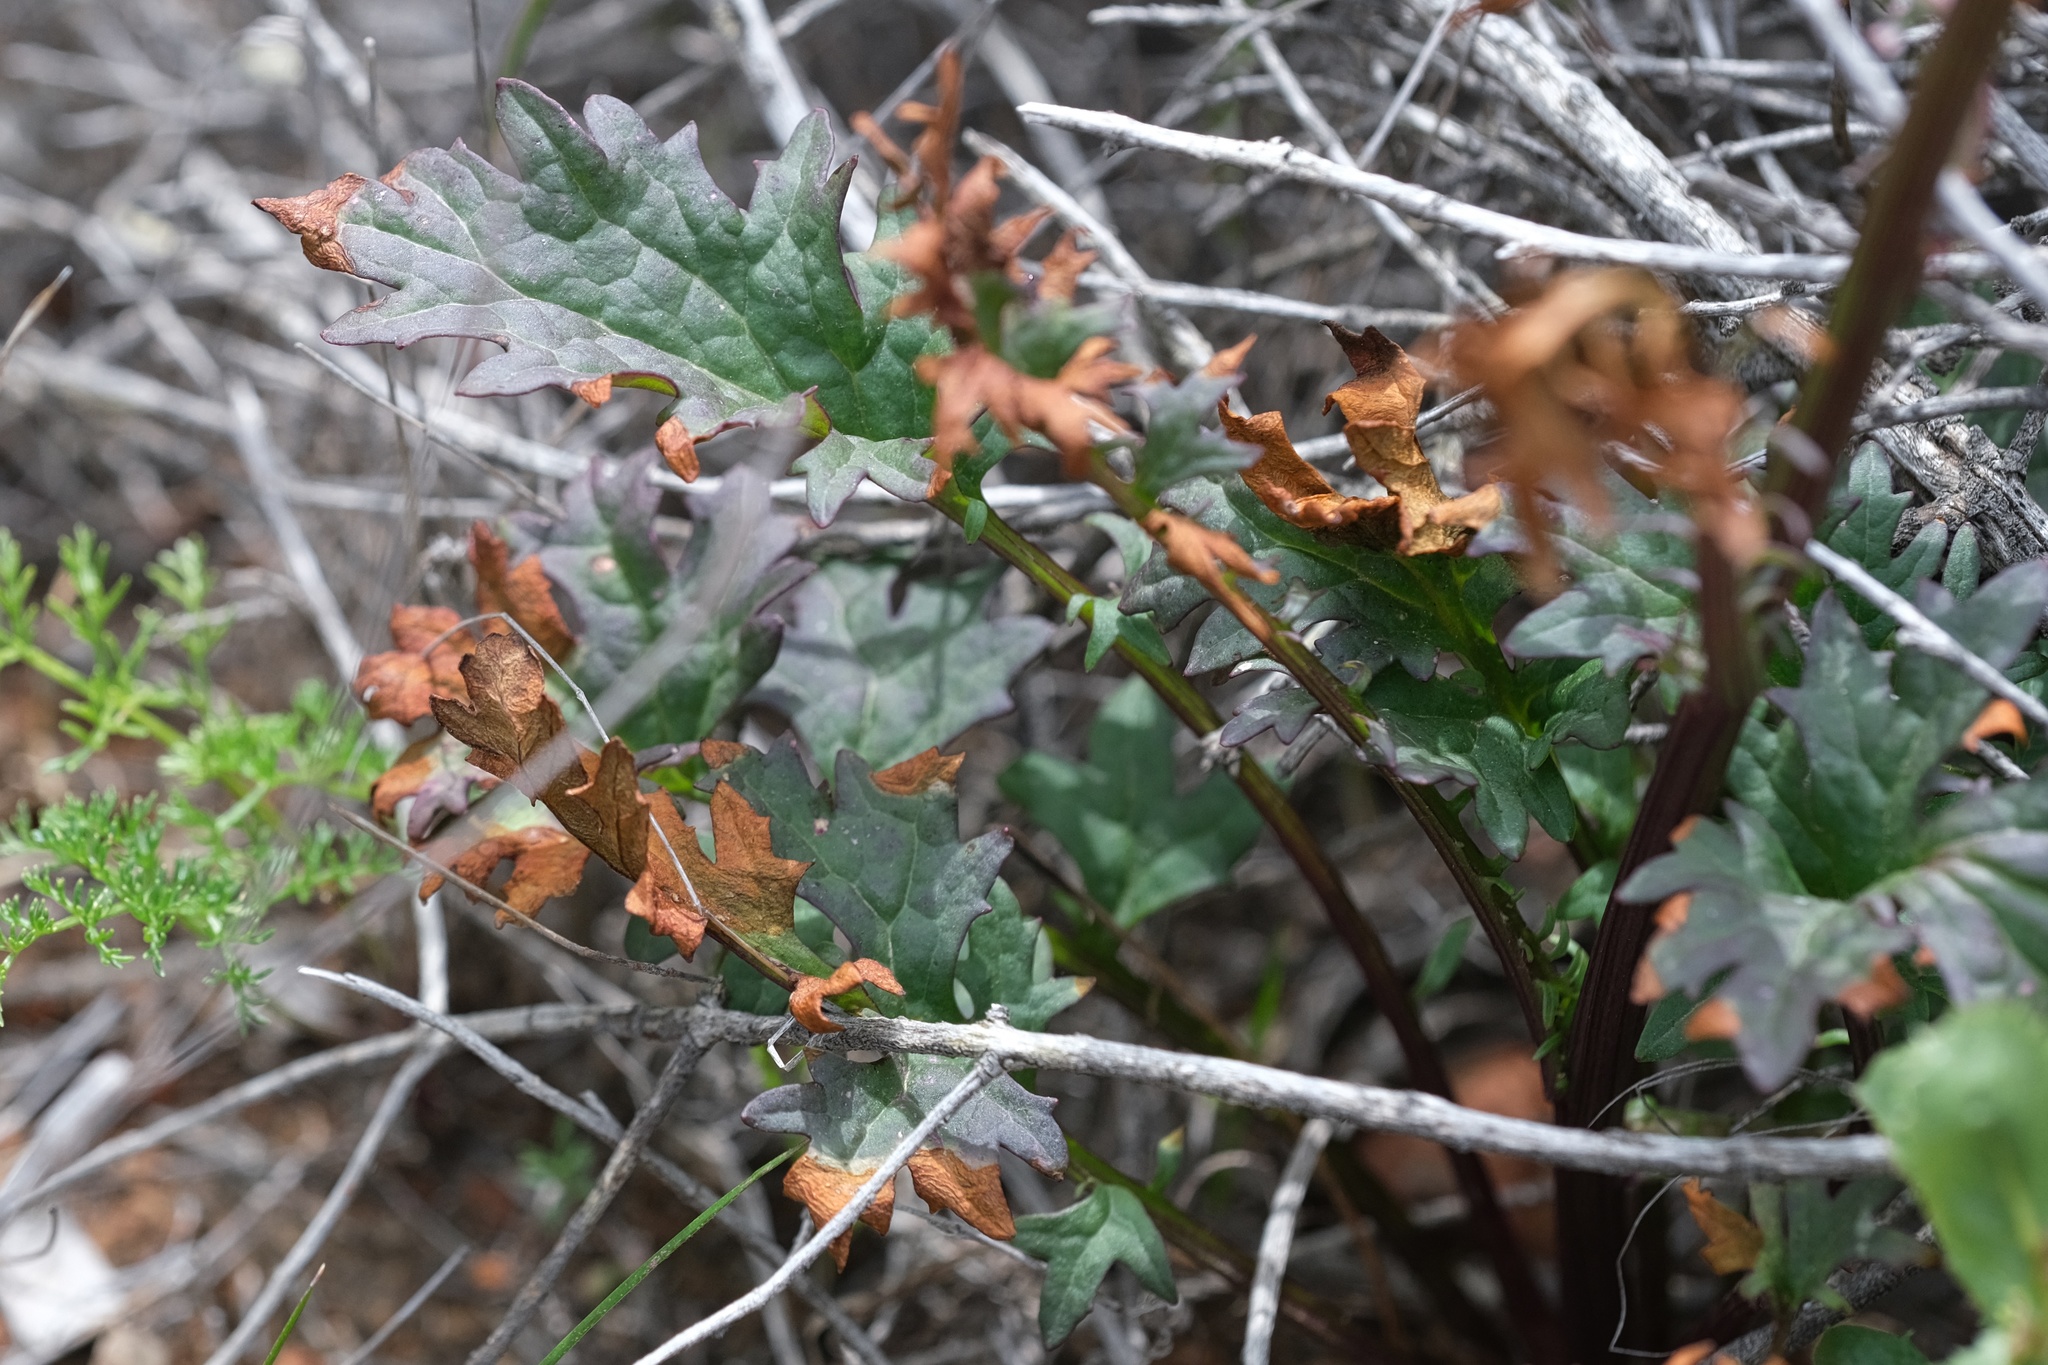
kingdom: Plantae
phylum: Tracheophyta
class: Magnoliopsida
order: Asterales
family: Asteraceae
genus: Packera
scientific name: Packera ganderi
